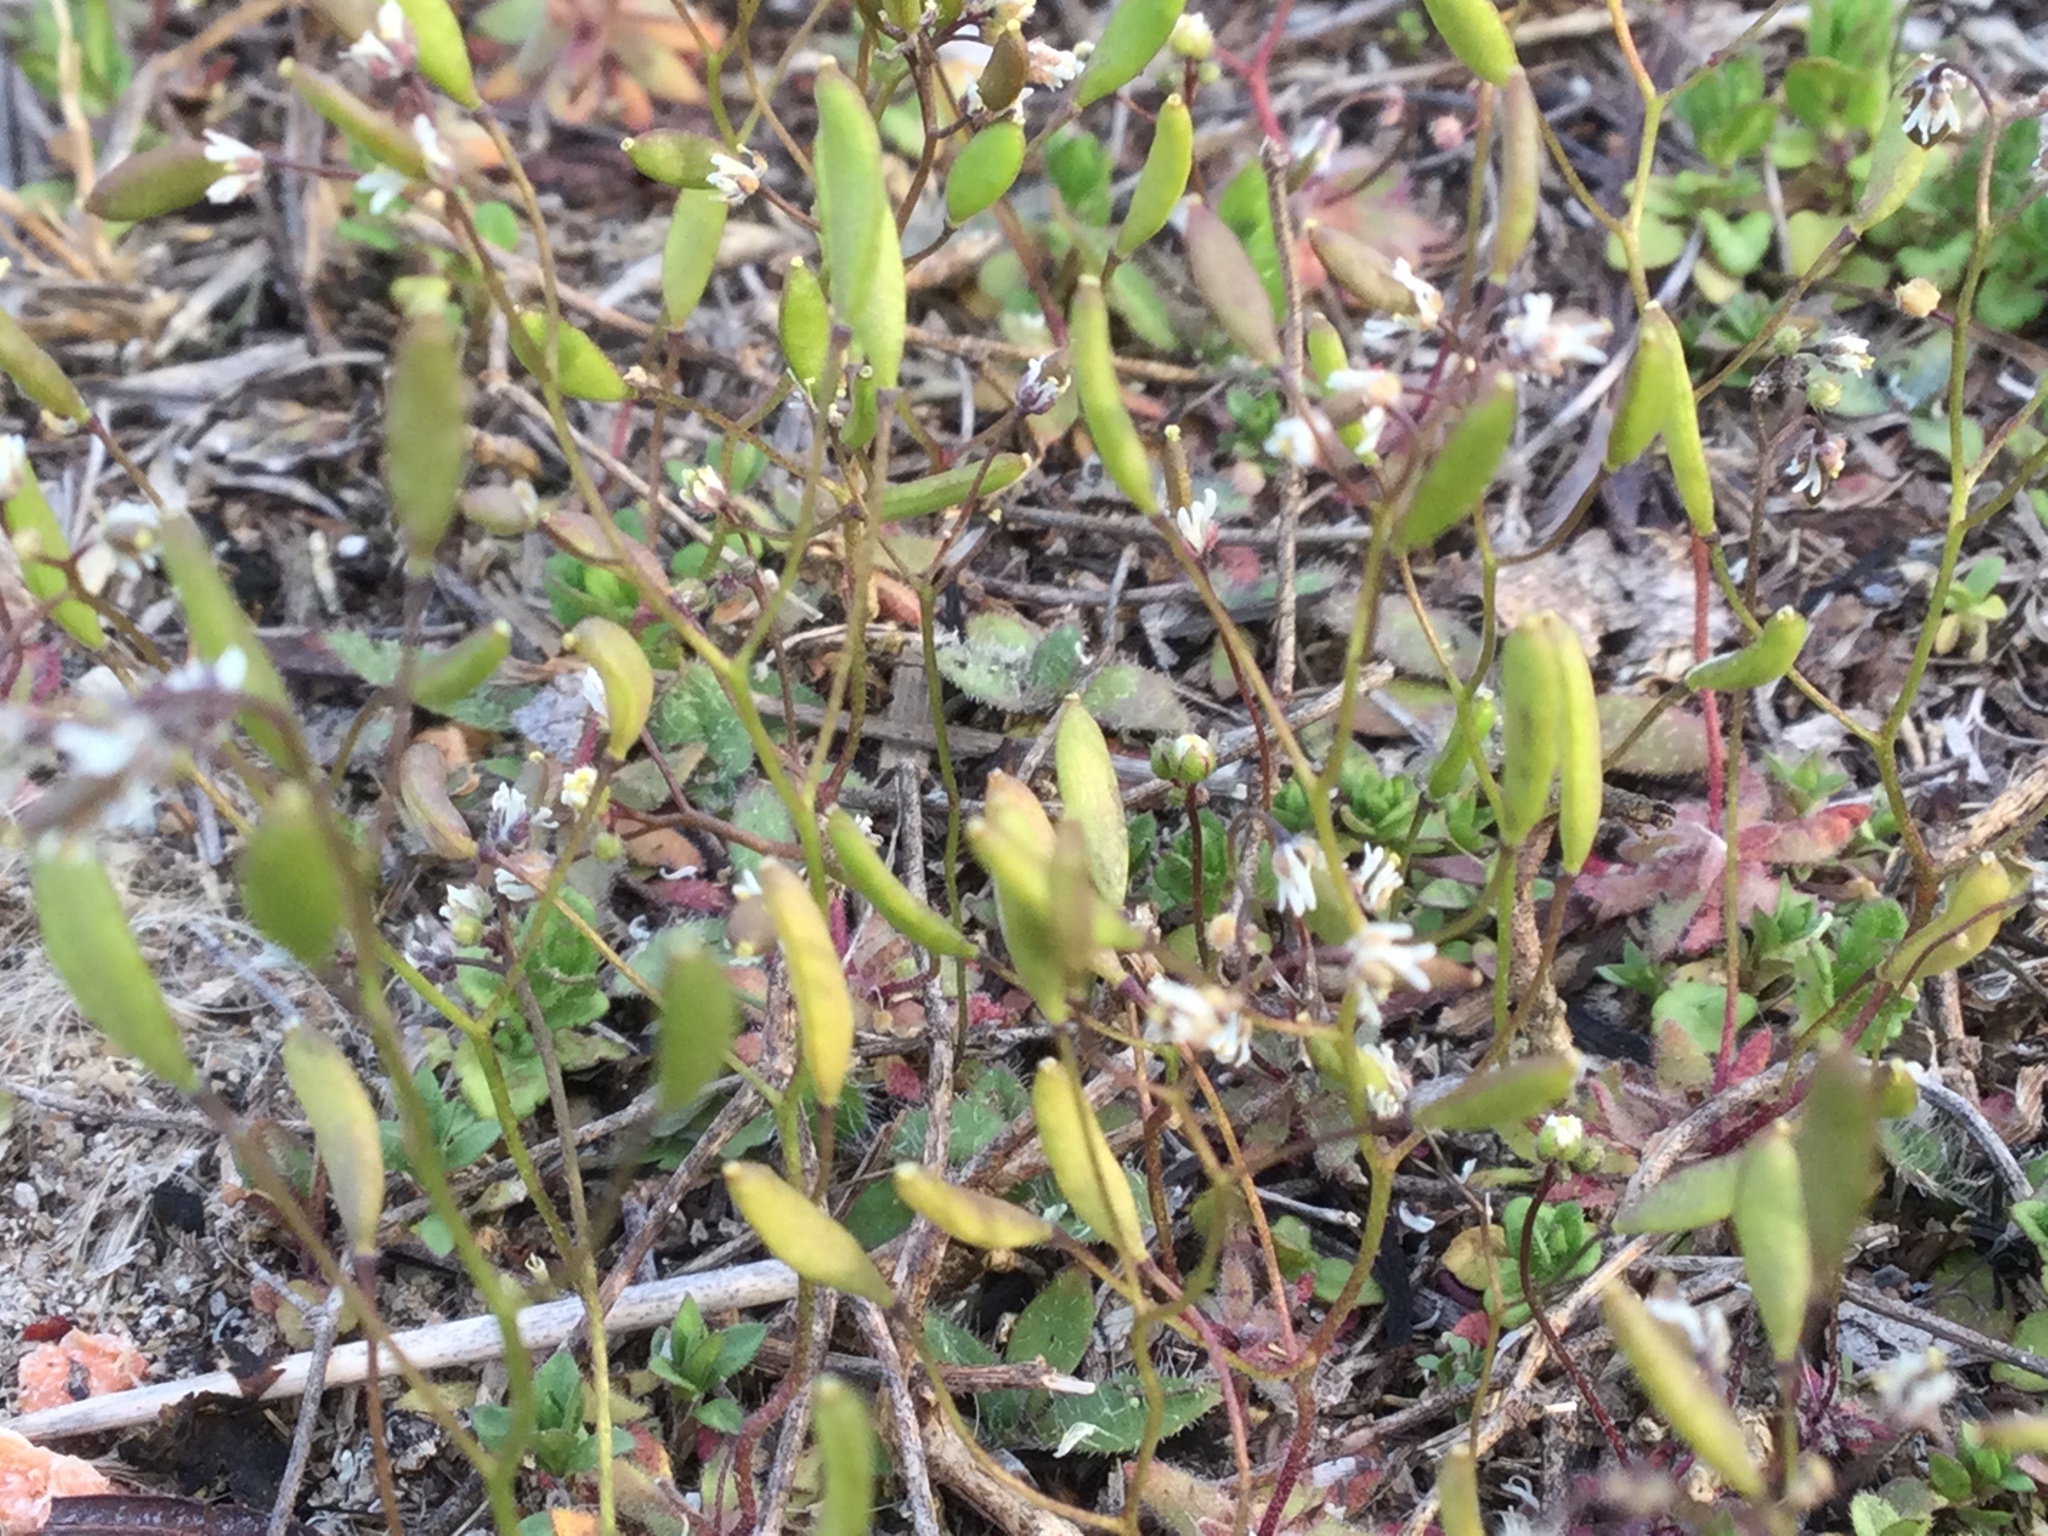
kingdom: Plantae
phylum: Tracheophyta
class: Magnoliopsida
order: Brassicales
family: Brassicaceae
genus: Draba
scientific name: Draba verna
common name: Spring draba
